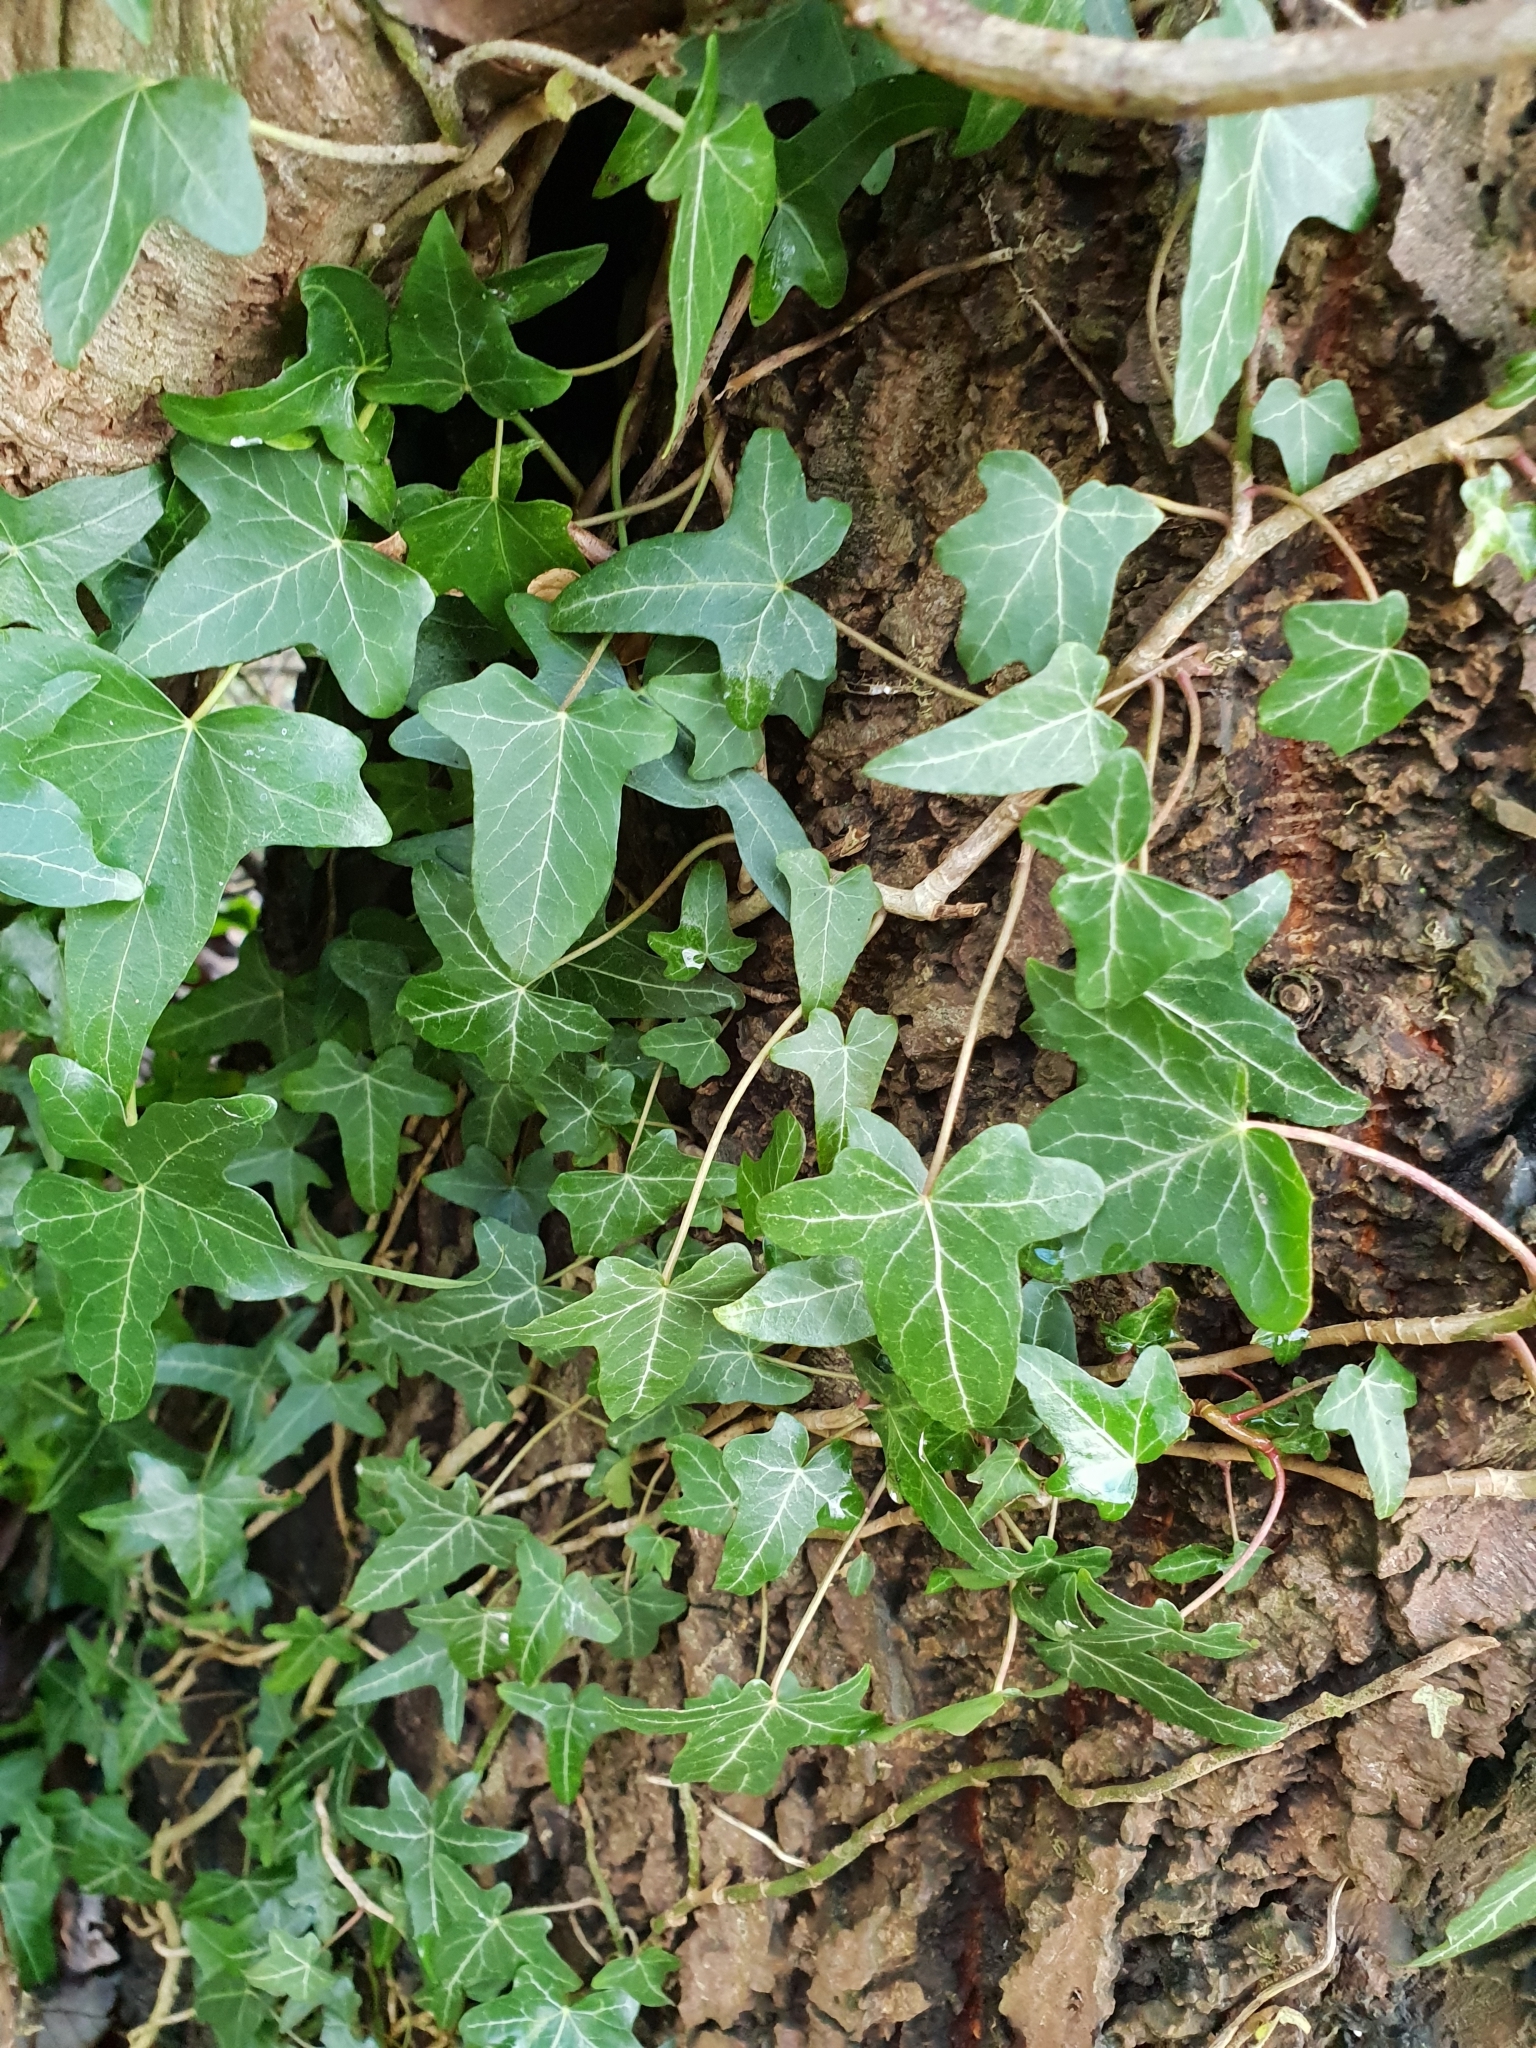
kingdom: Plantae
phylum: Tracheophyta
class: Magnoliopsida
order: Apiales
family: Araliaceae
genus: Hedera
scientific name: Hedera helix
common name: Ivy
